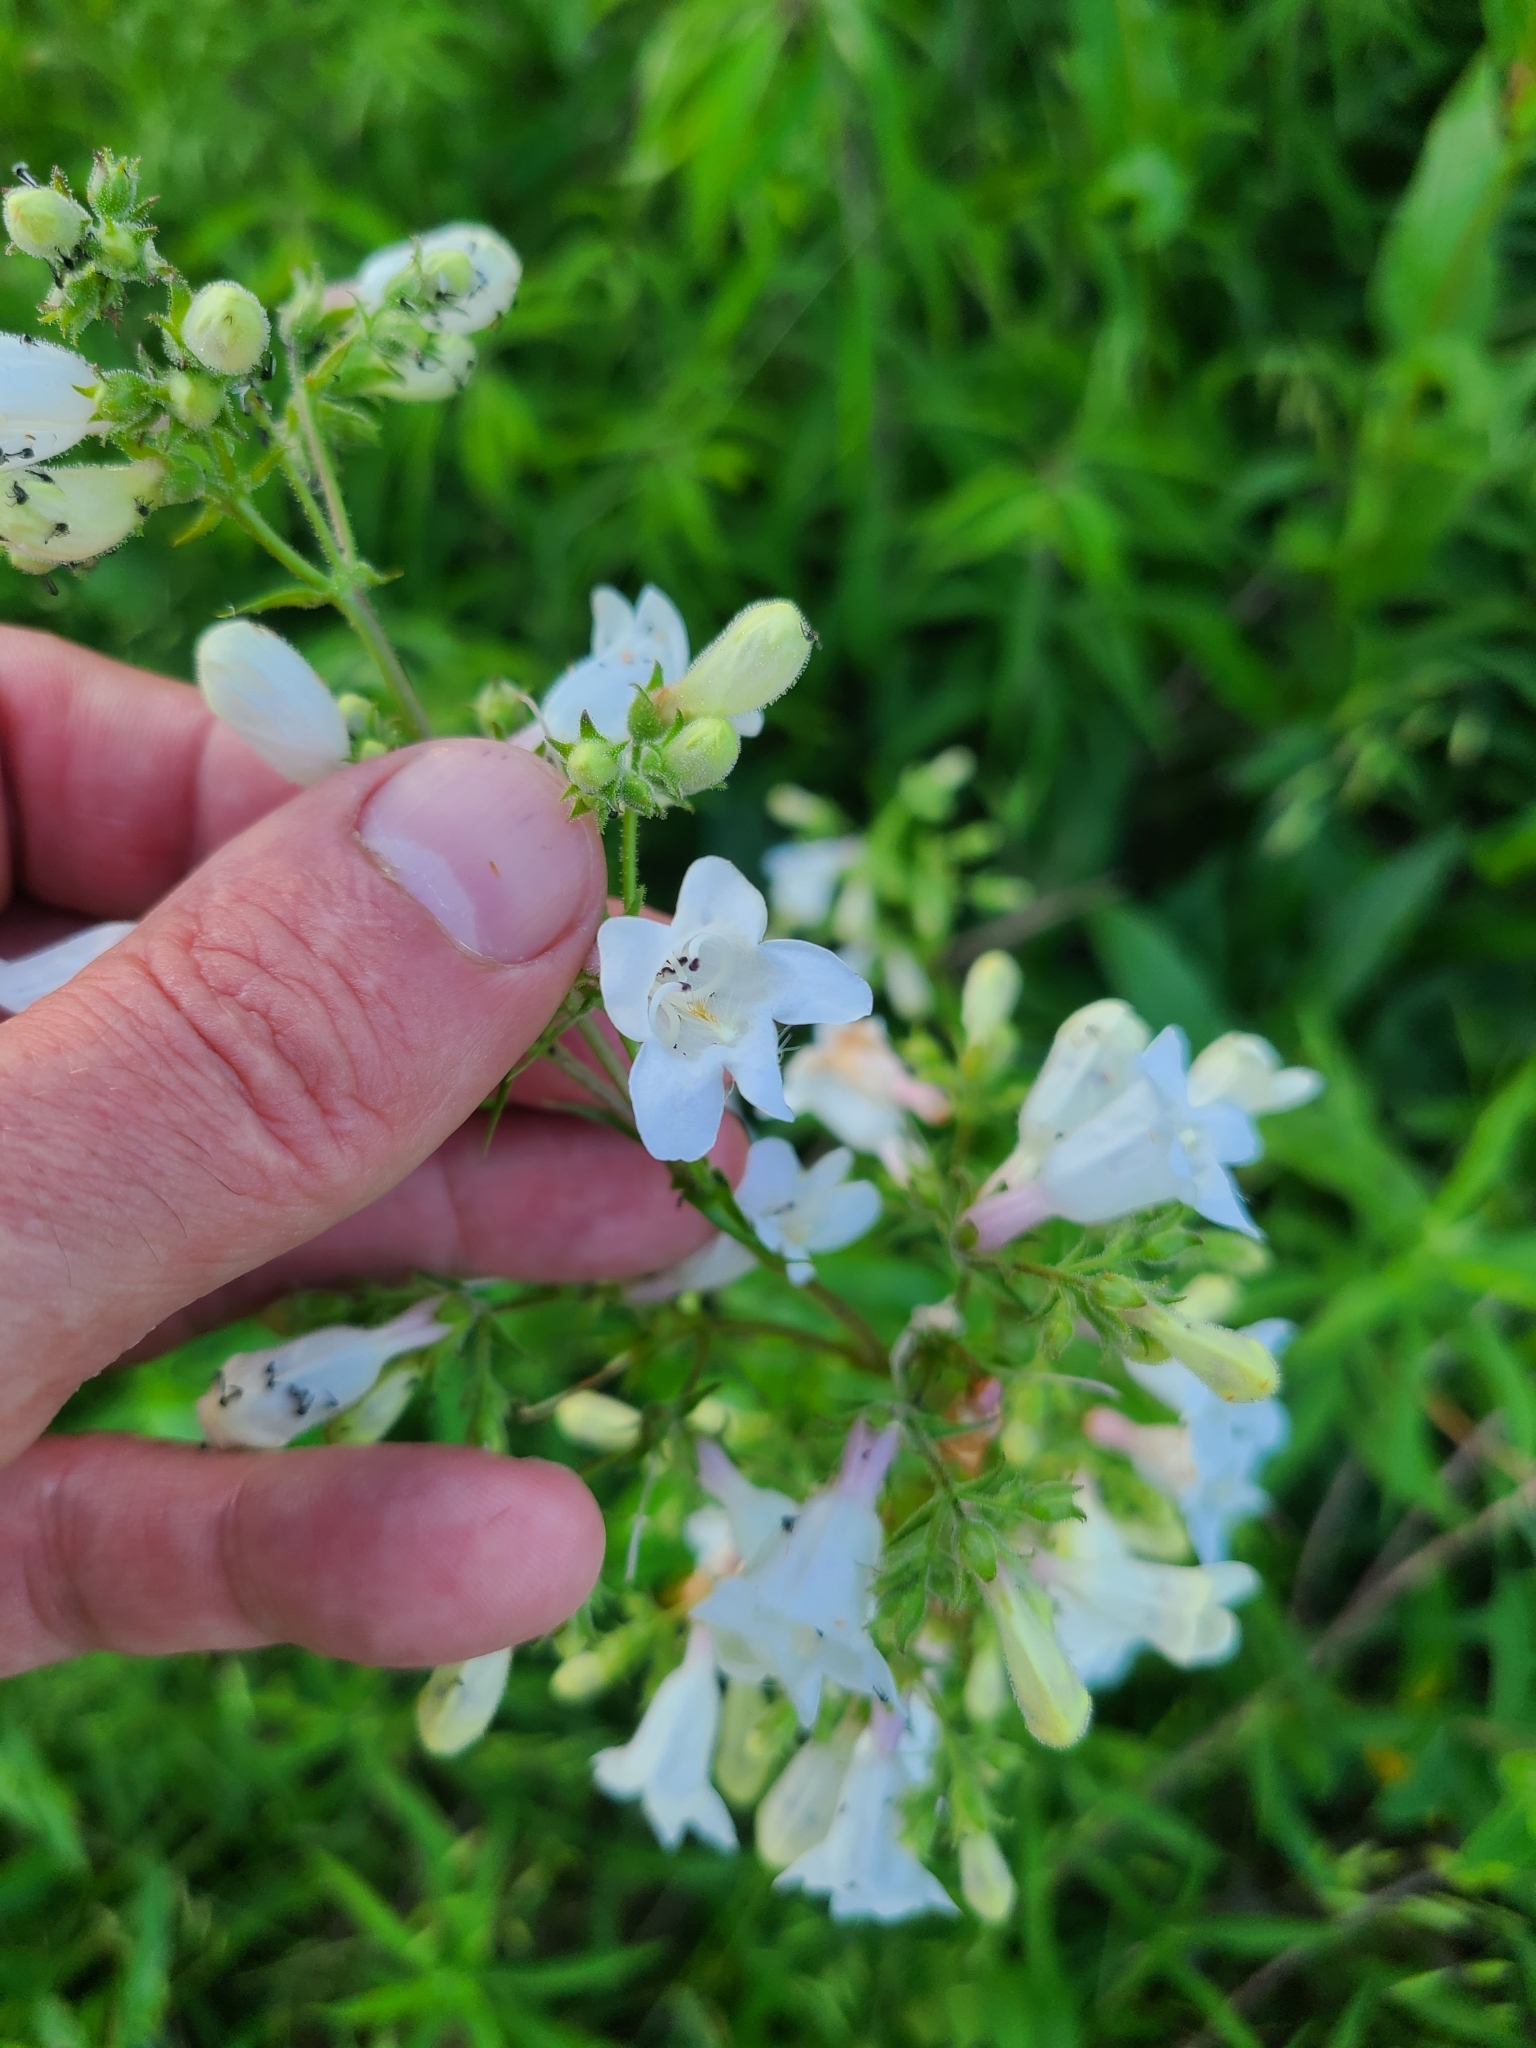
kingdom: Plantae
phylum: Tracheophyta
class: Magnoliopsida
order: Lamiales
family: Plantaginaceae
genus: Penstemon
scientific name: Penstemon digitalis
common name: Foxglove beardtongue
